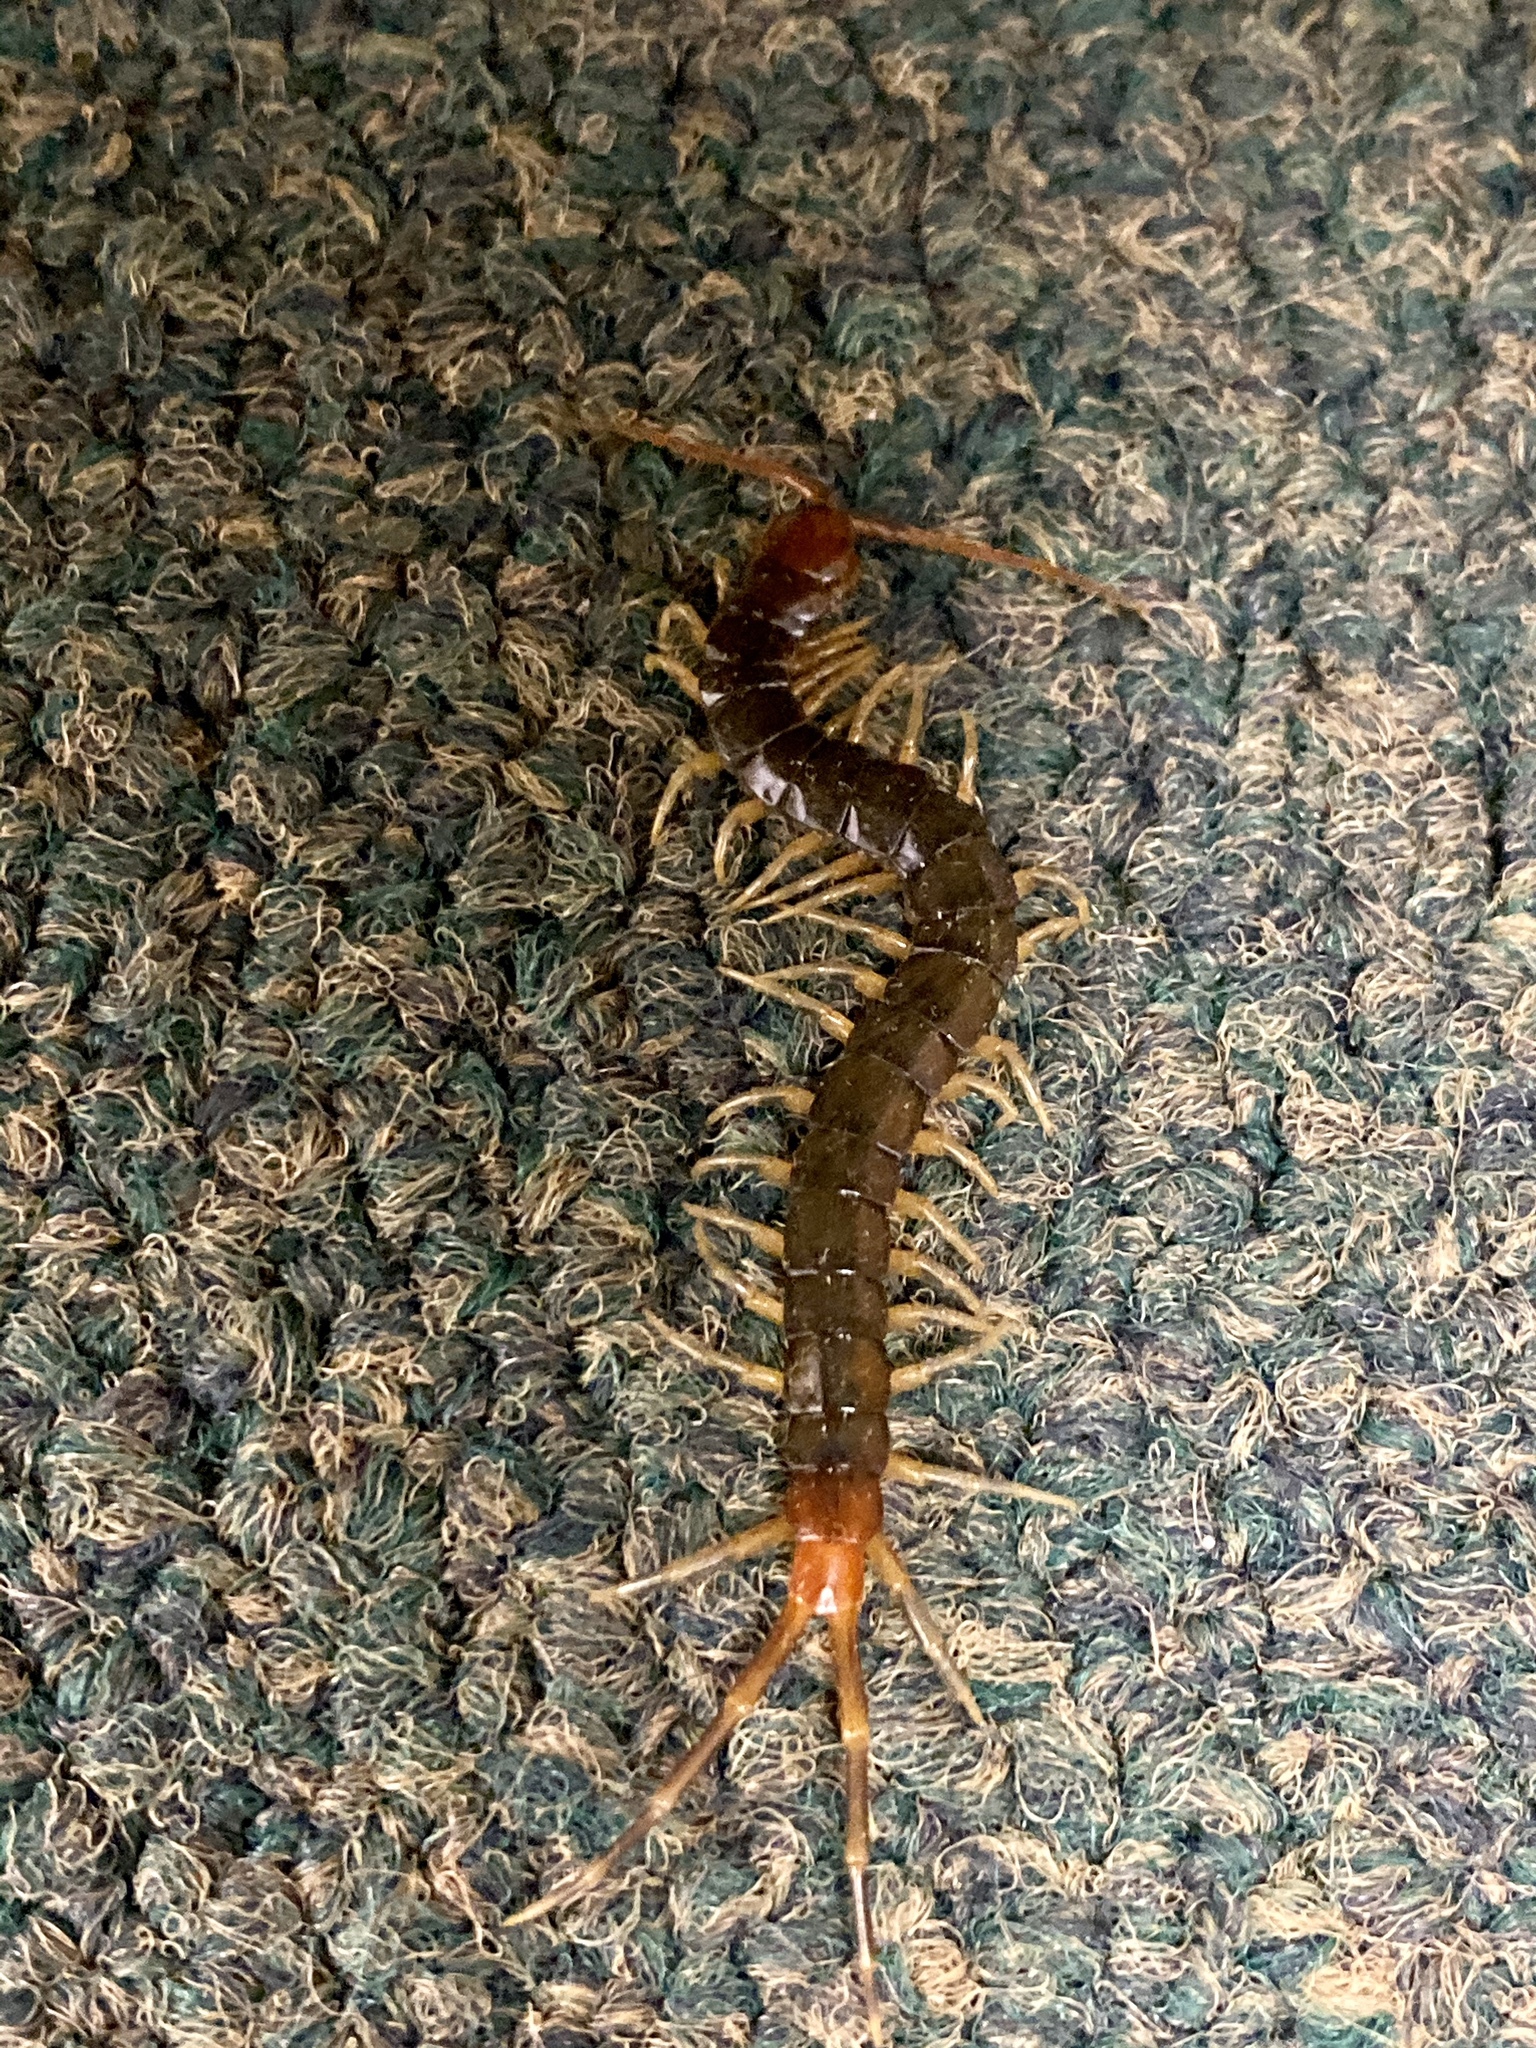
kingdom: Animalia
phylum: Arthropoda
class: Chilopoda
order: Scolopendromorpha
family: Scolopendridae
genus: Rhysida
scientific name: Rhysida longipes
